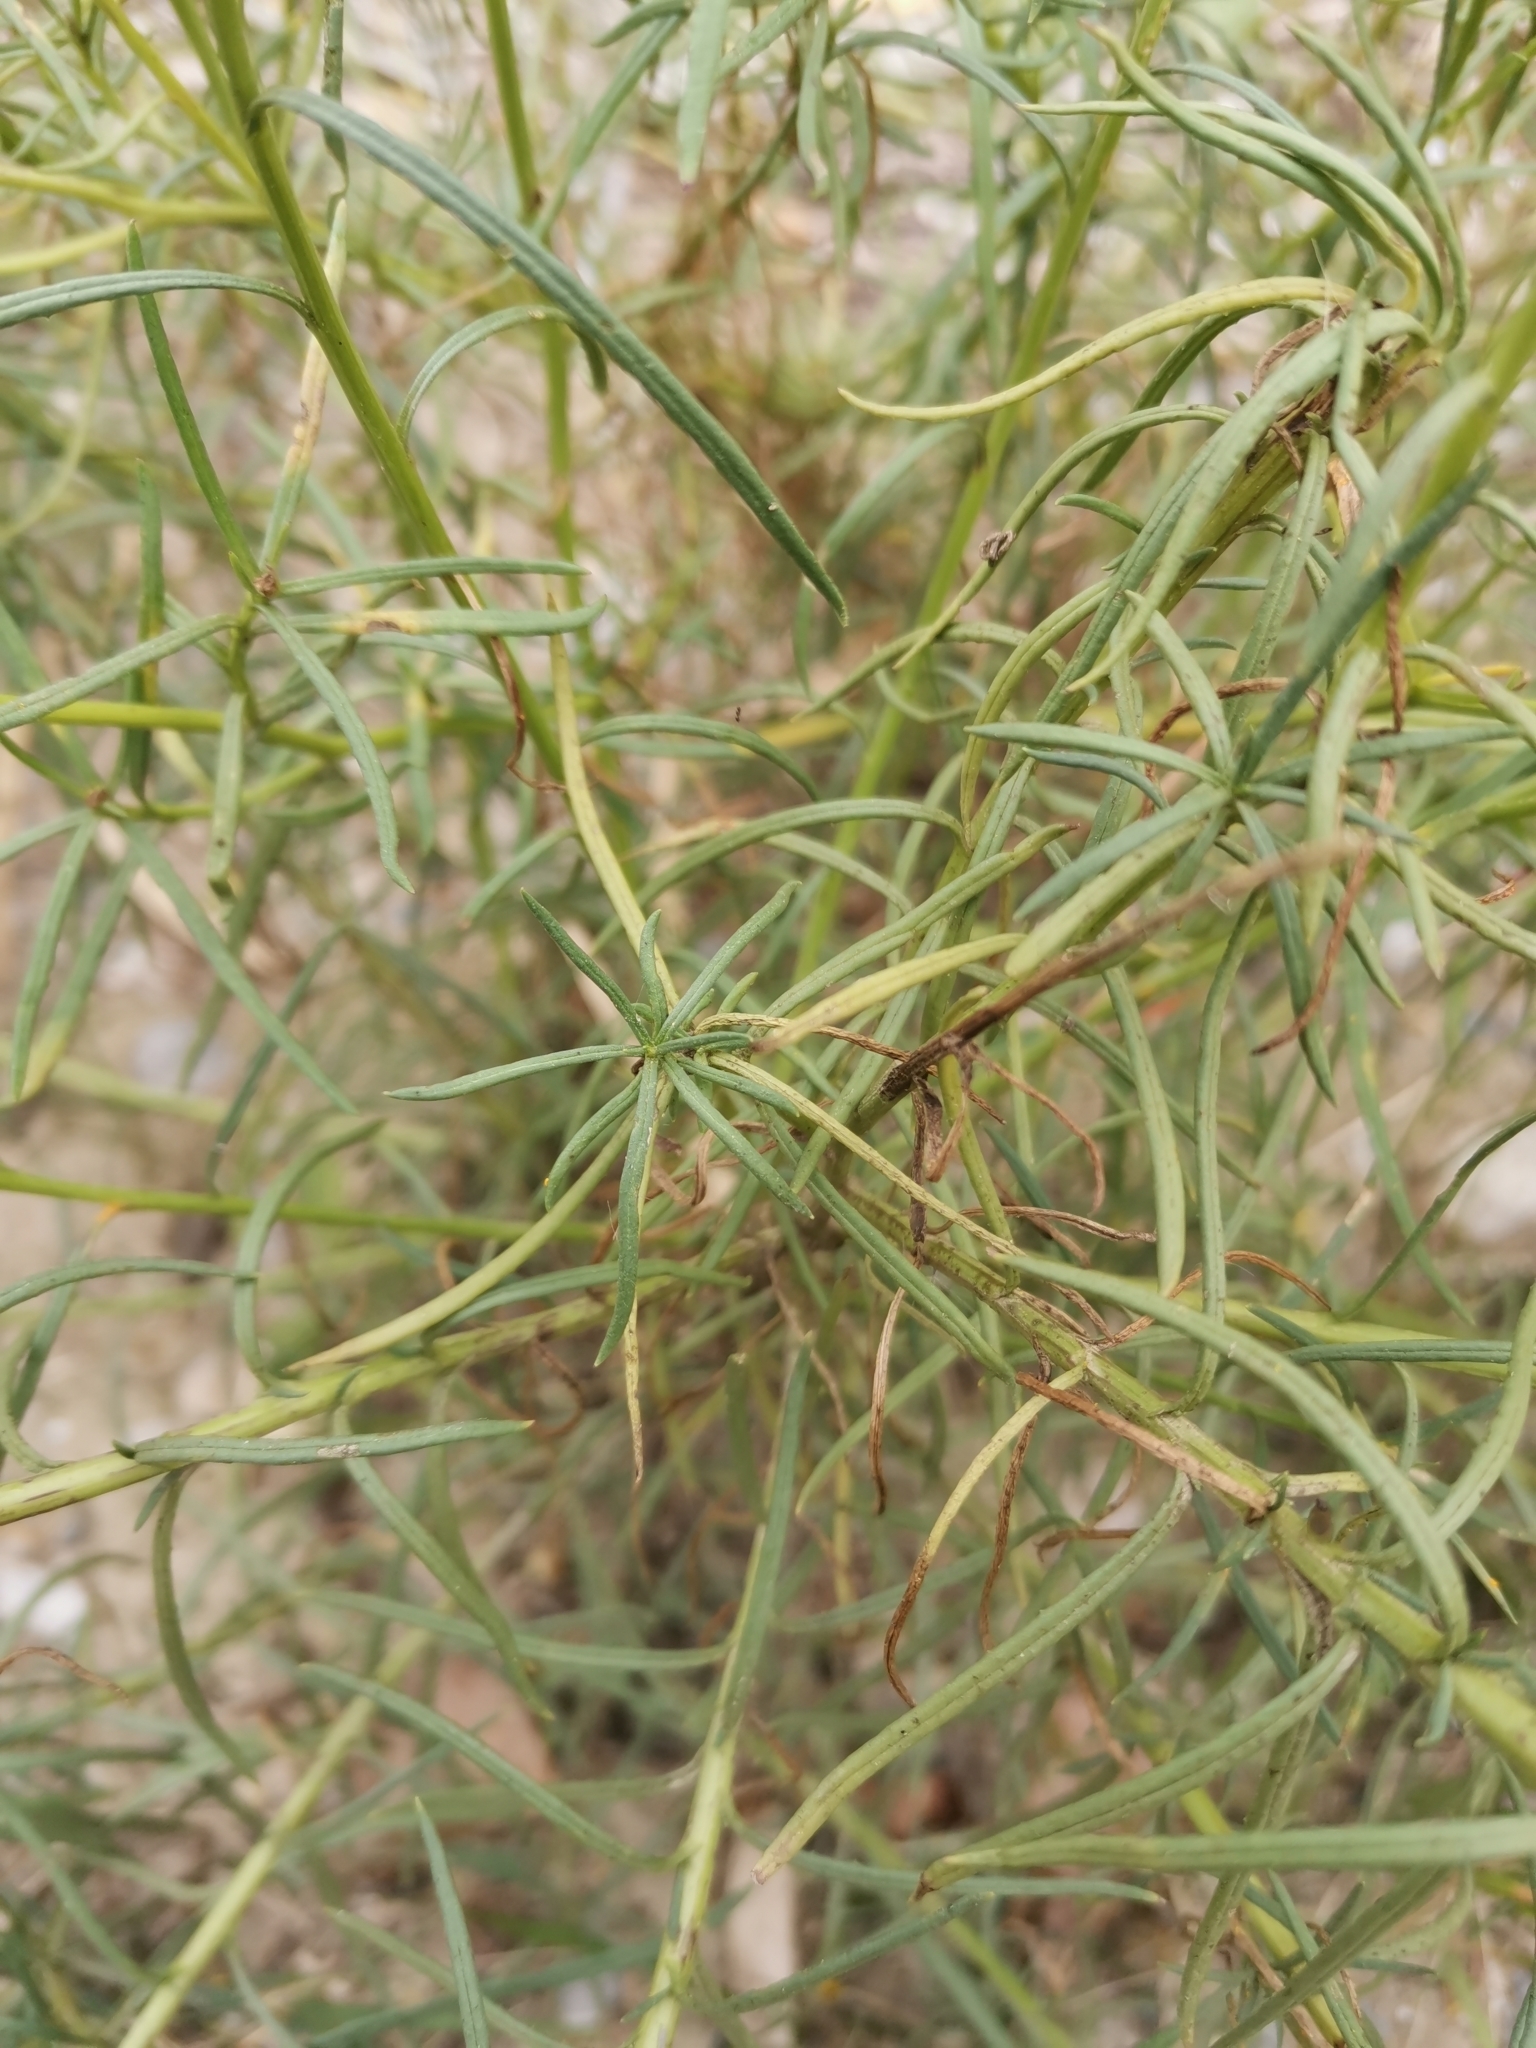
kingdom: Plantae
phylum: Tracheophyta
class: Magnoliopsida
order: Asterales
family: Asteraceae
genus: Senecio
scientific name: Senecio inaequidens
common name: Narrow-leaved ragwort
